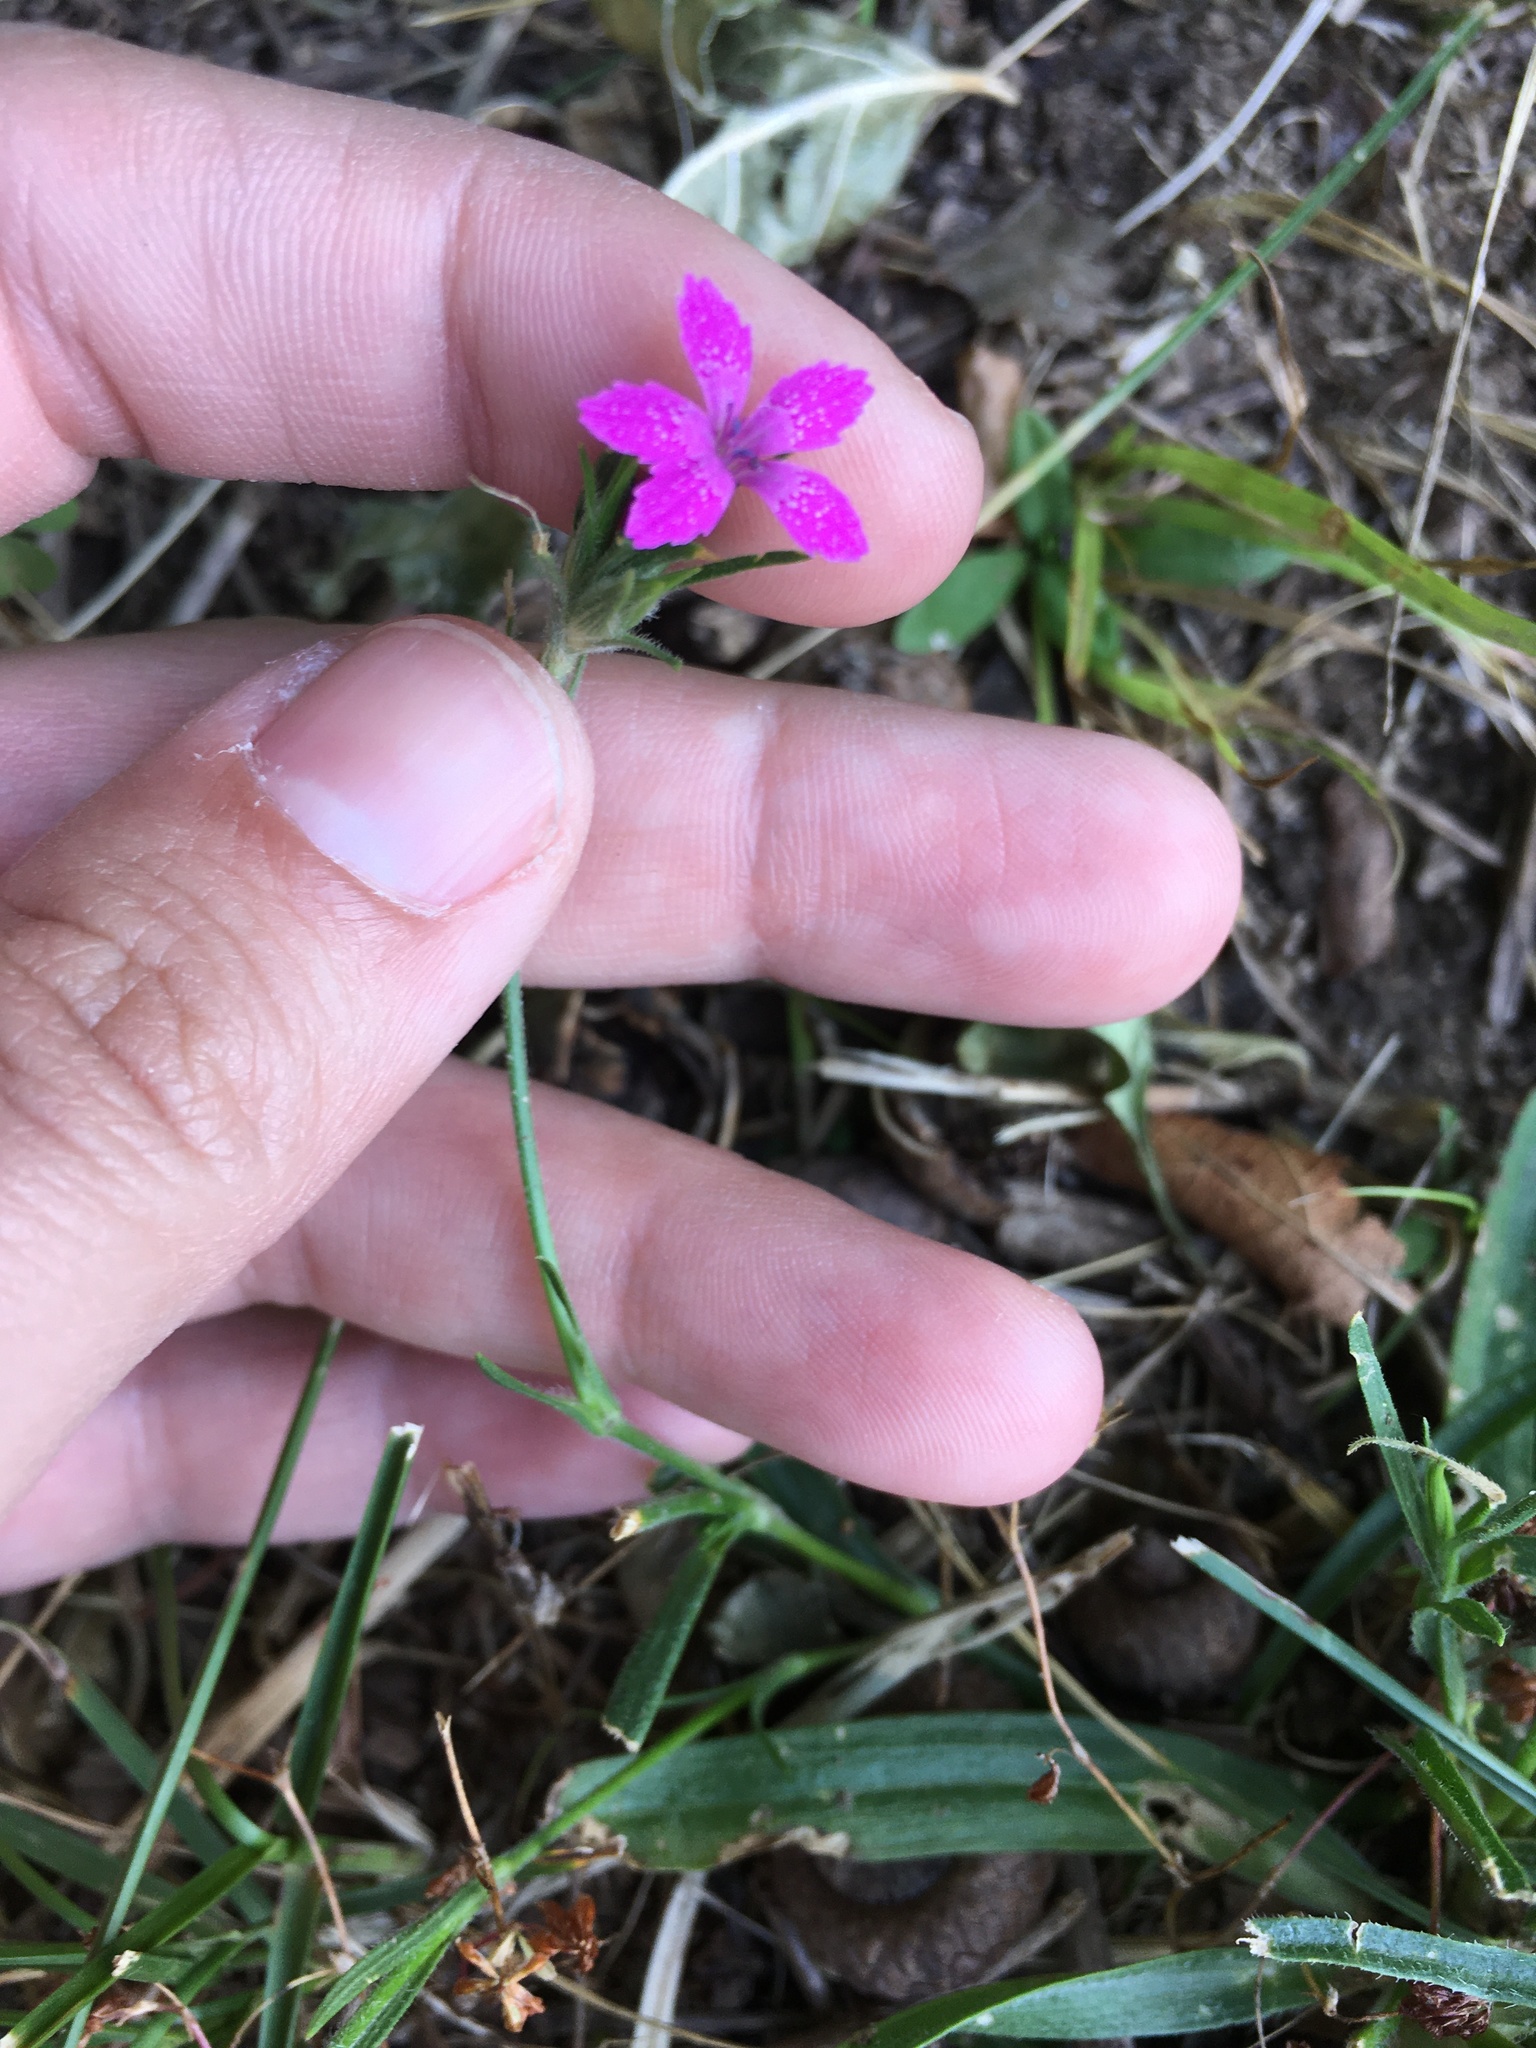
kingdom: Plantae
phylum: Tracheophyta
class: Magnoliopsida
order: Caryophyllales
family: Caryophyllaceae
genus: Dianthus
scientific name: Dianthus armeria
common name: Deptford pink
